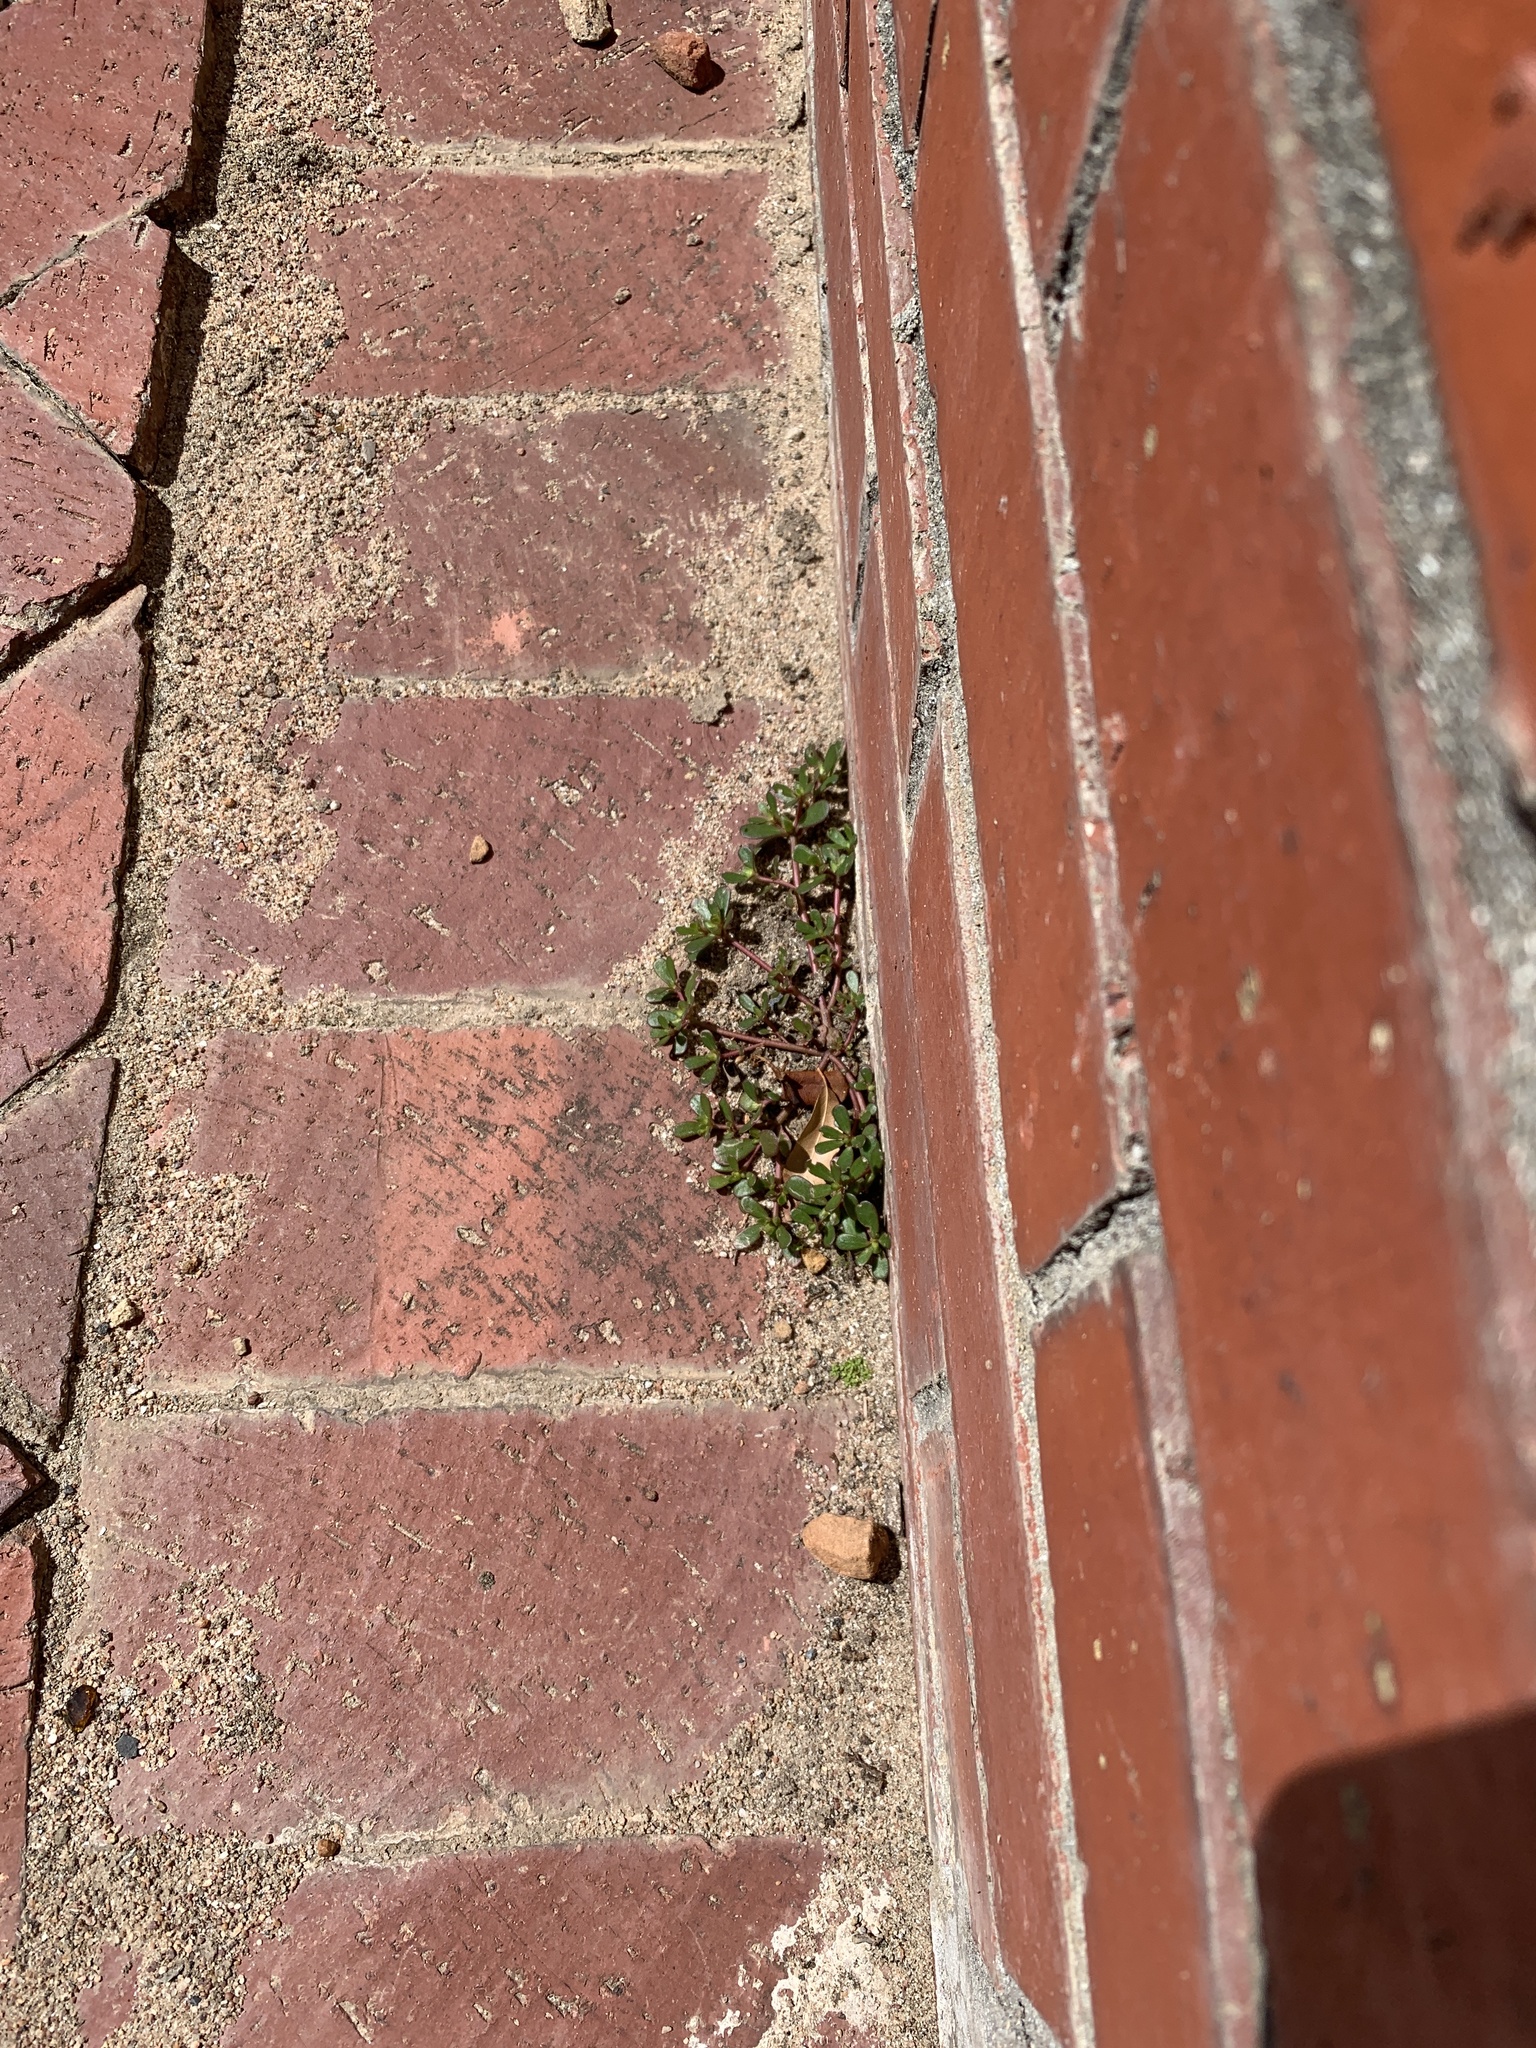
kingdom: Plantae
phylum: Tracheophyta
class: Magnoliopsida
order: Caryophyllales
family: Portulacaceae
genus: Portulaca
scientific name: Portulaca oleracea
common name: Common purslane
